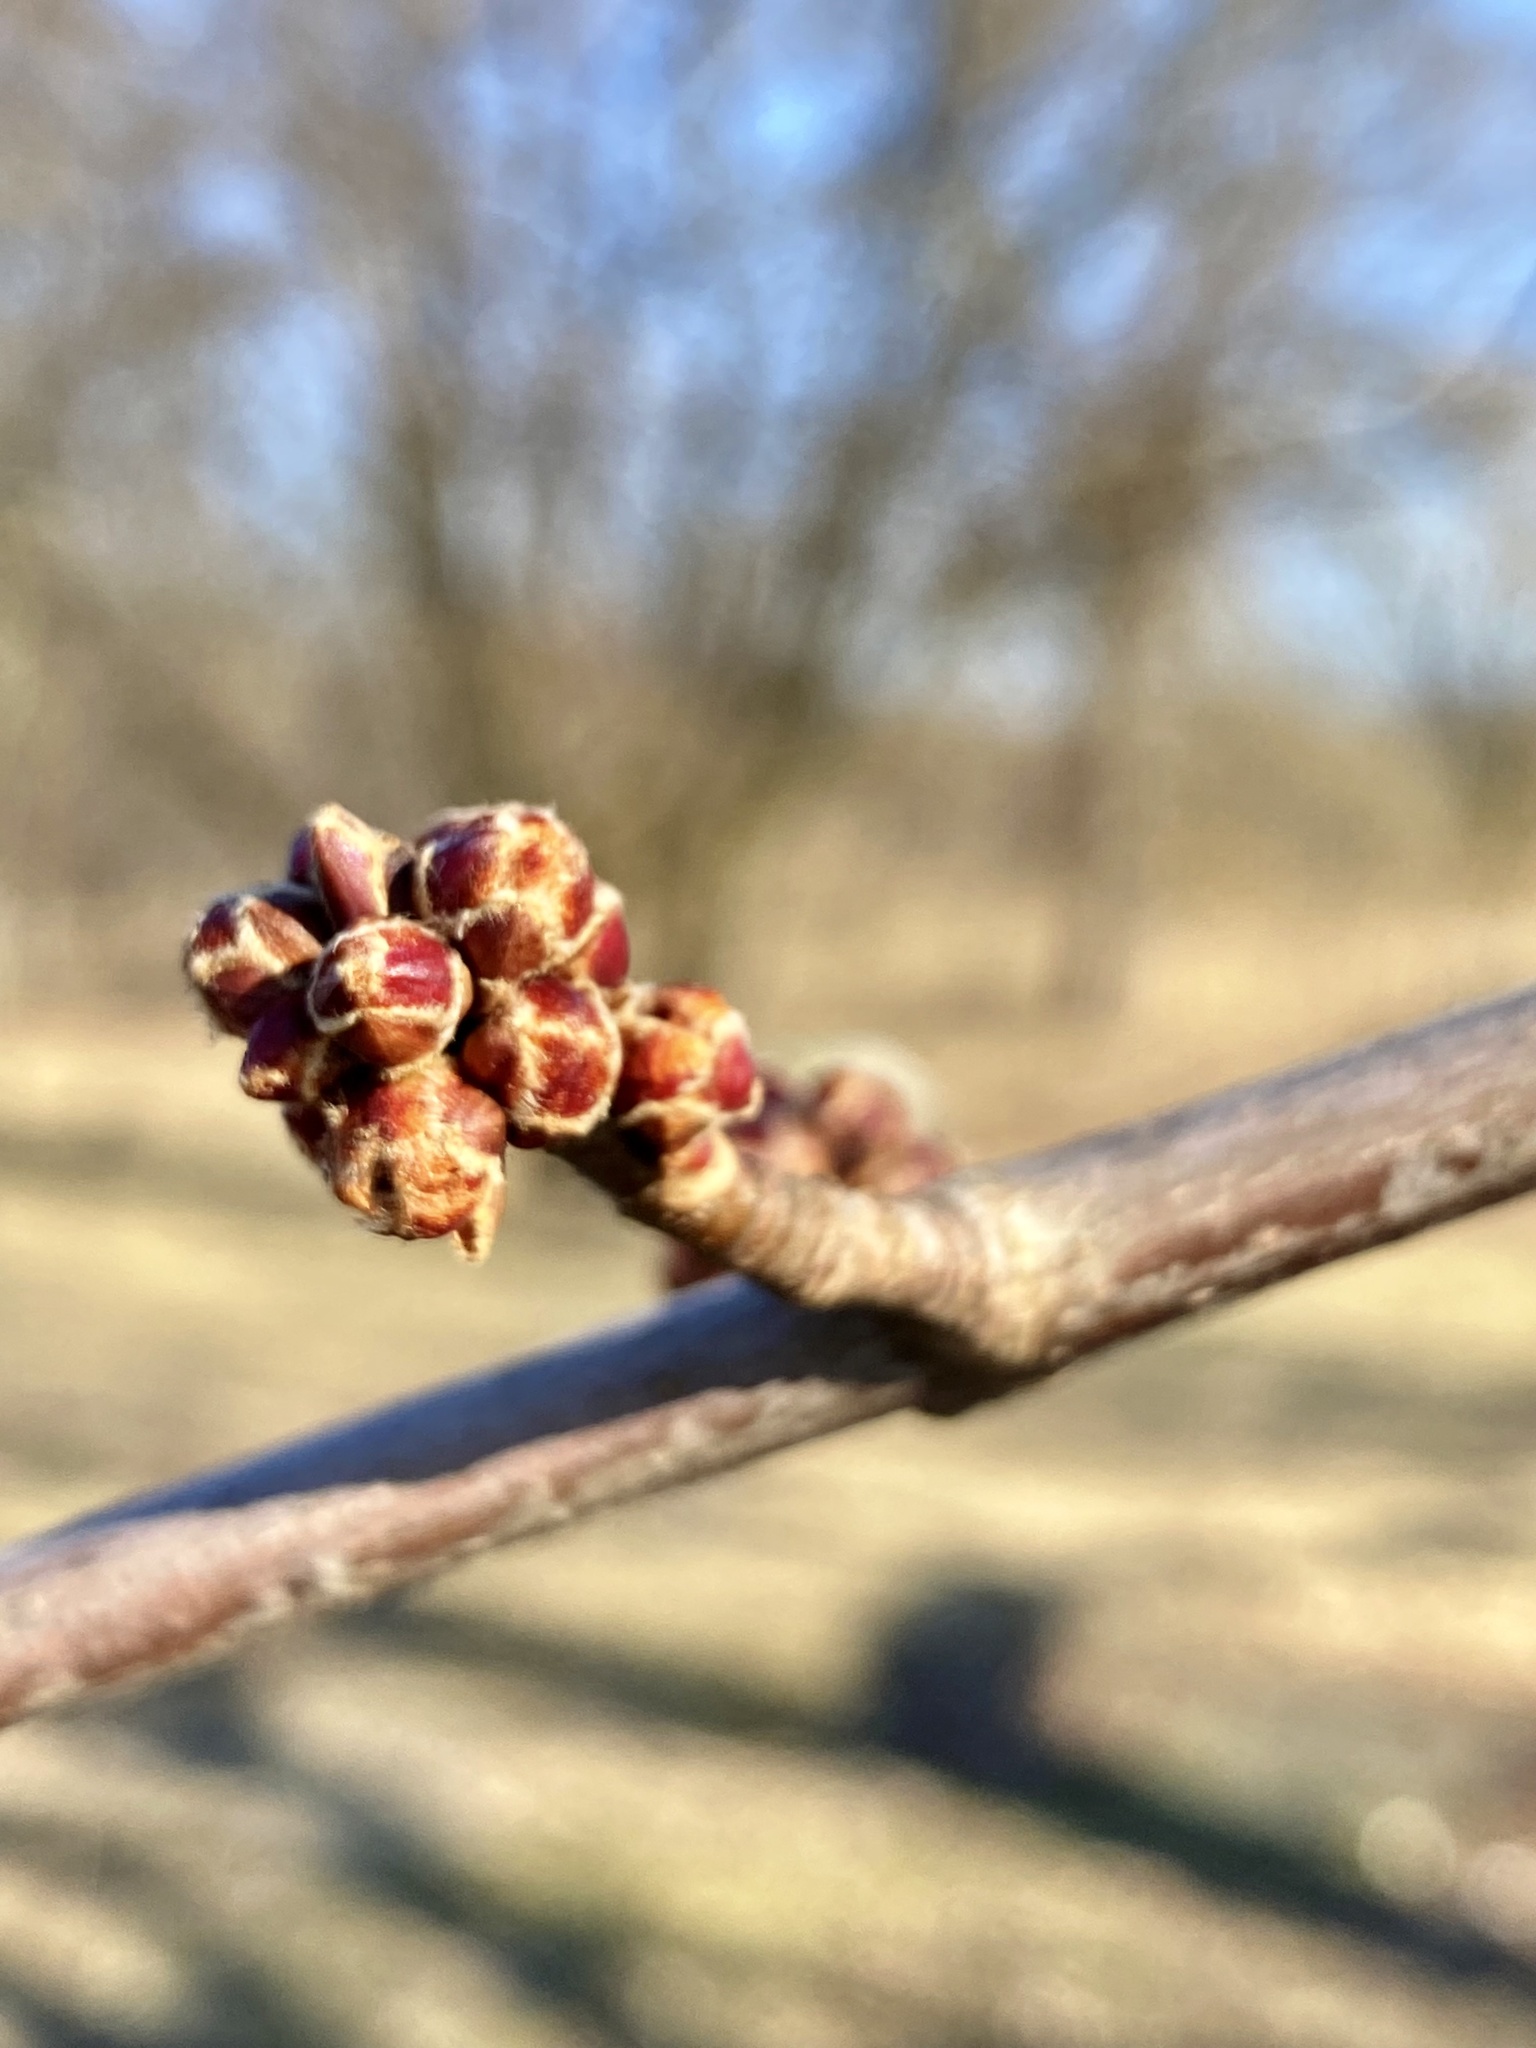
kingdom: Plantae
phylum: Tracheophyta
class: Magnoliopsida
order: Sapindales
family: Sapindaceae
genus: Acer
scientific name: Acer saccharinum
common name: Silver maple
